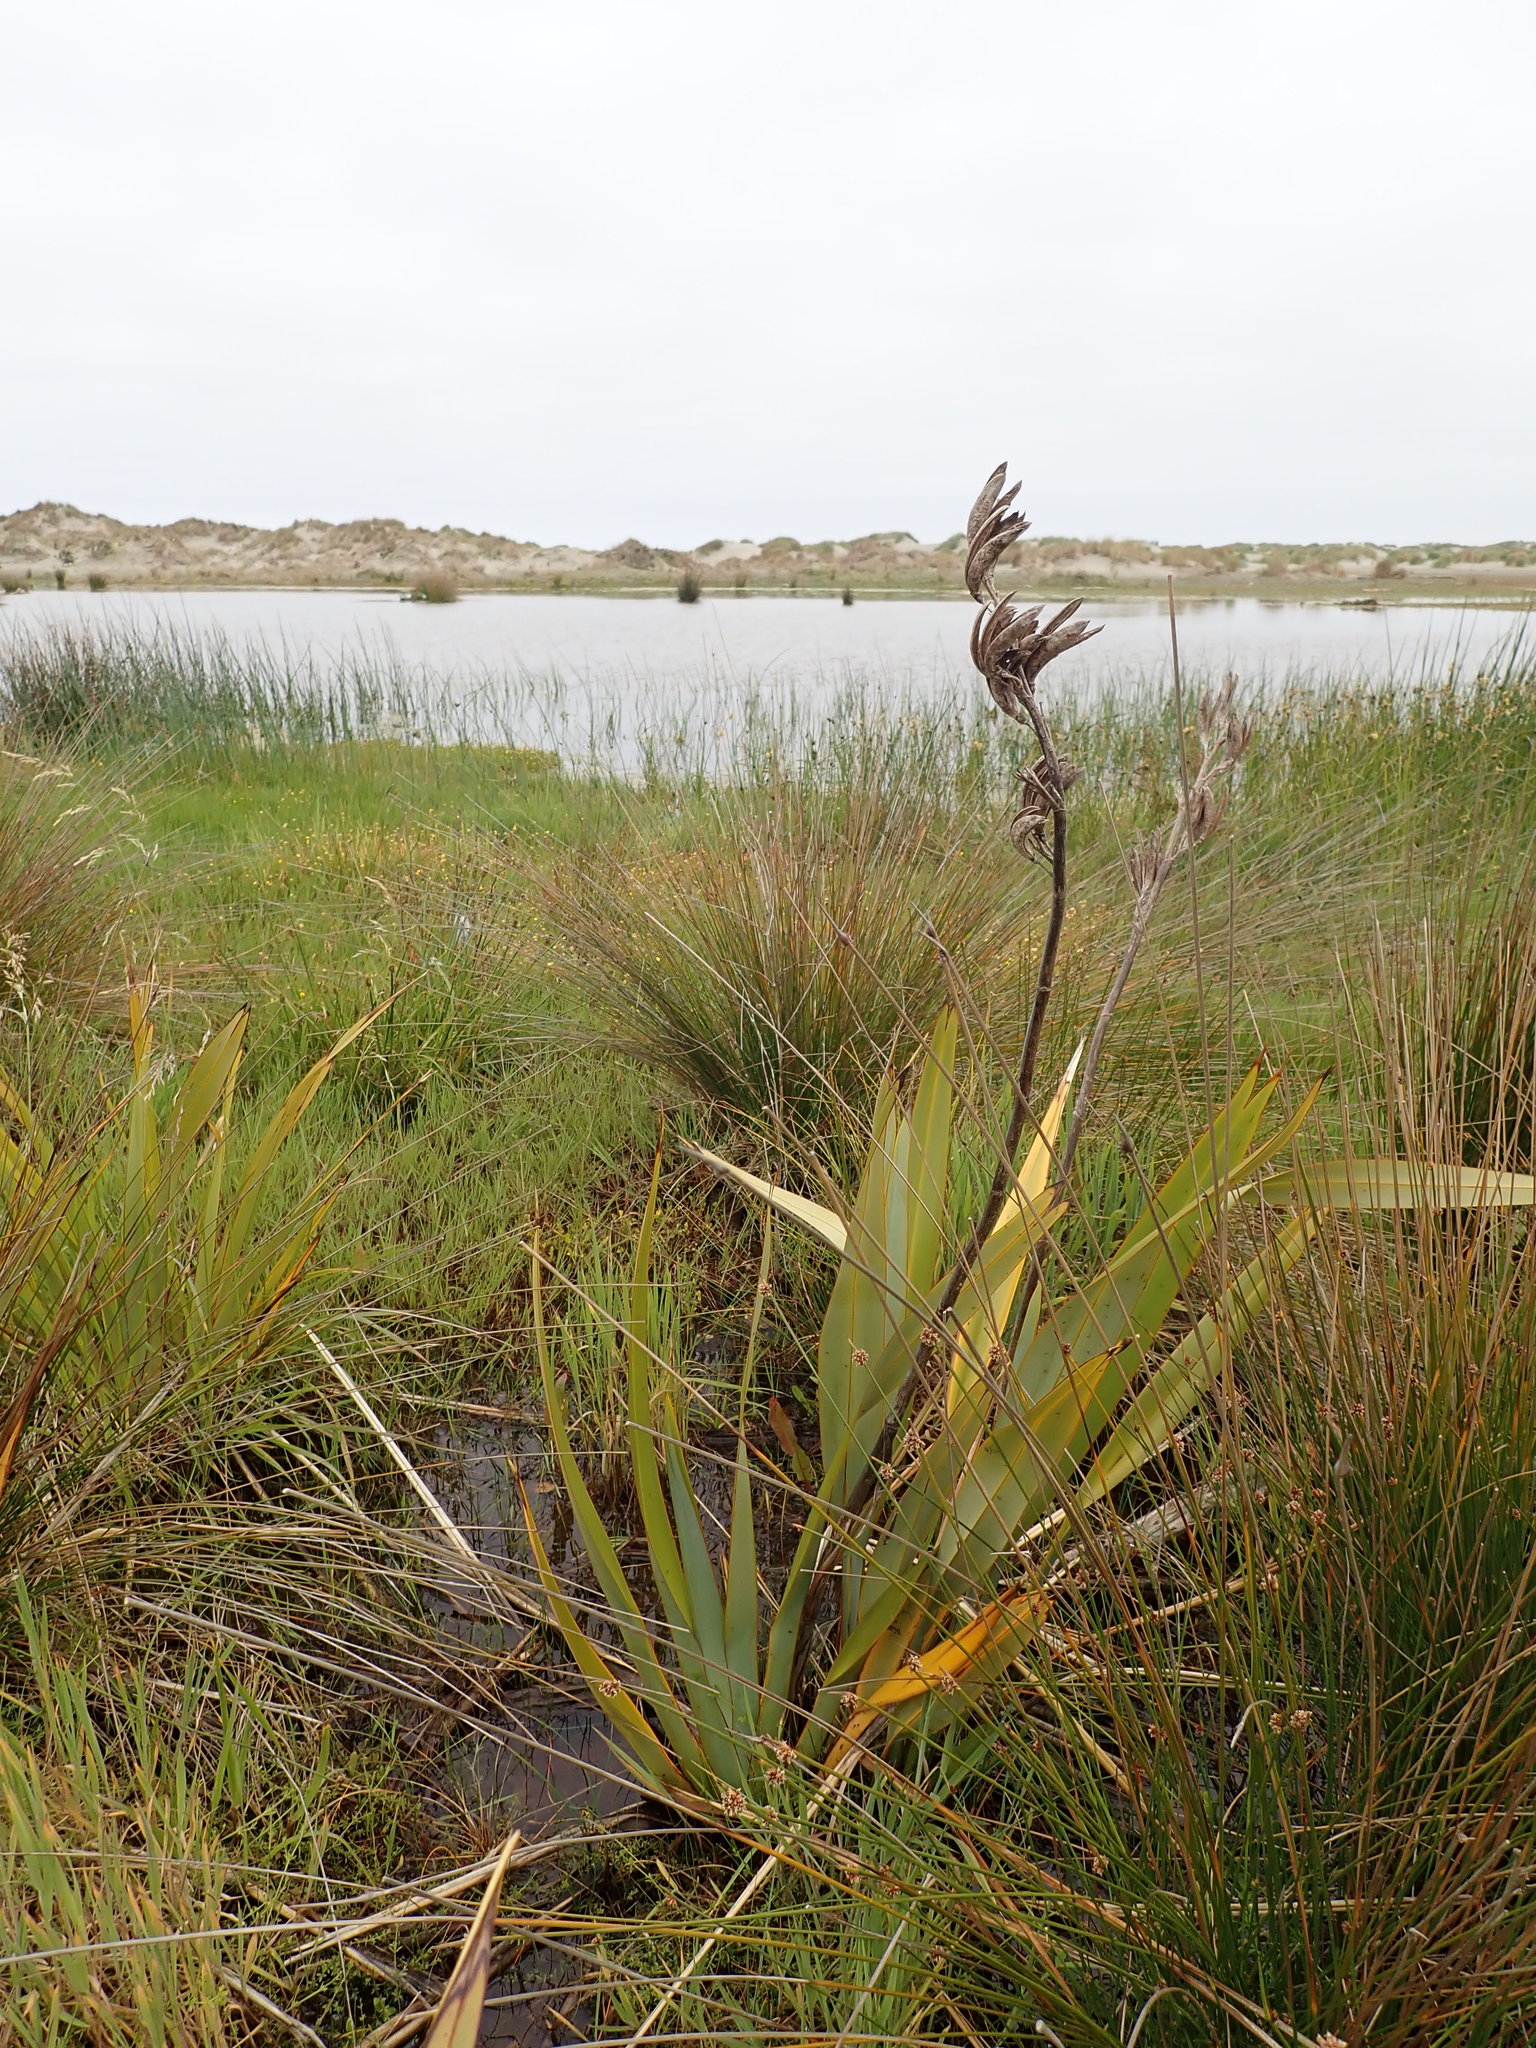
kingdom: Plantae
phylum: Tracheophyta
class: Liliopsida
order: Asparagales
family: Asphodelaceae
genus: Phormium
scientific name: Phormium tenax
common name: New zealand flax
